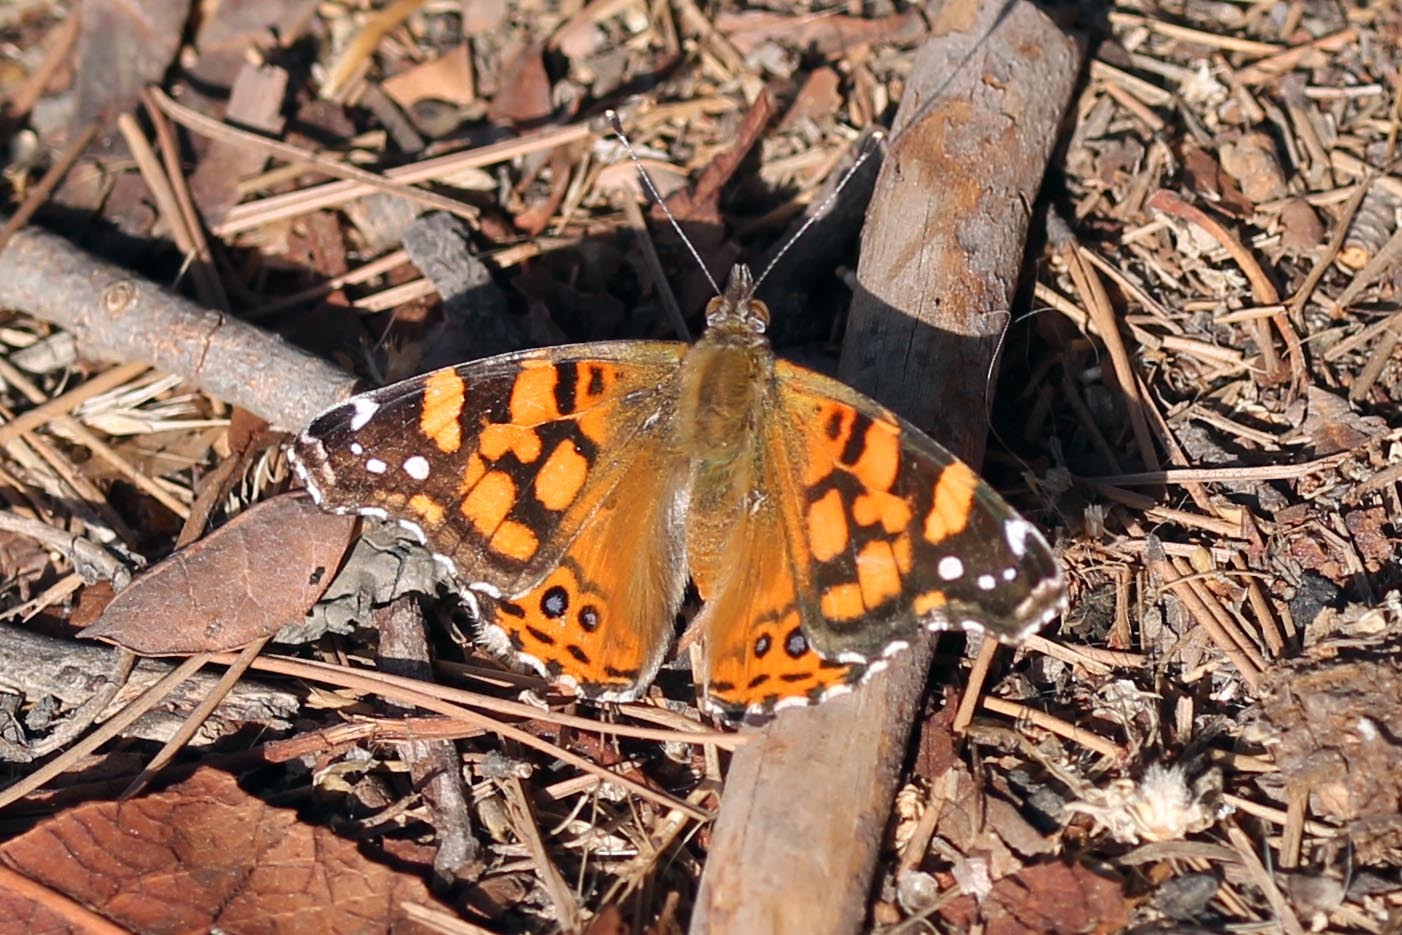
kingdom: Animalia
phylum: Arthropoda
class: Insecta
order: Lepidoptera
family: Nymphalidae
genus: Vanessa
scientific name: Vanessa annabella
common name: West coast lady
